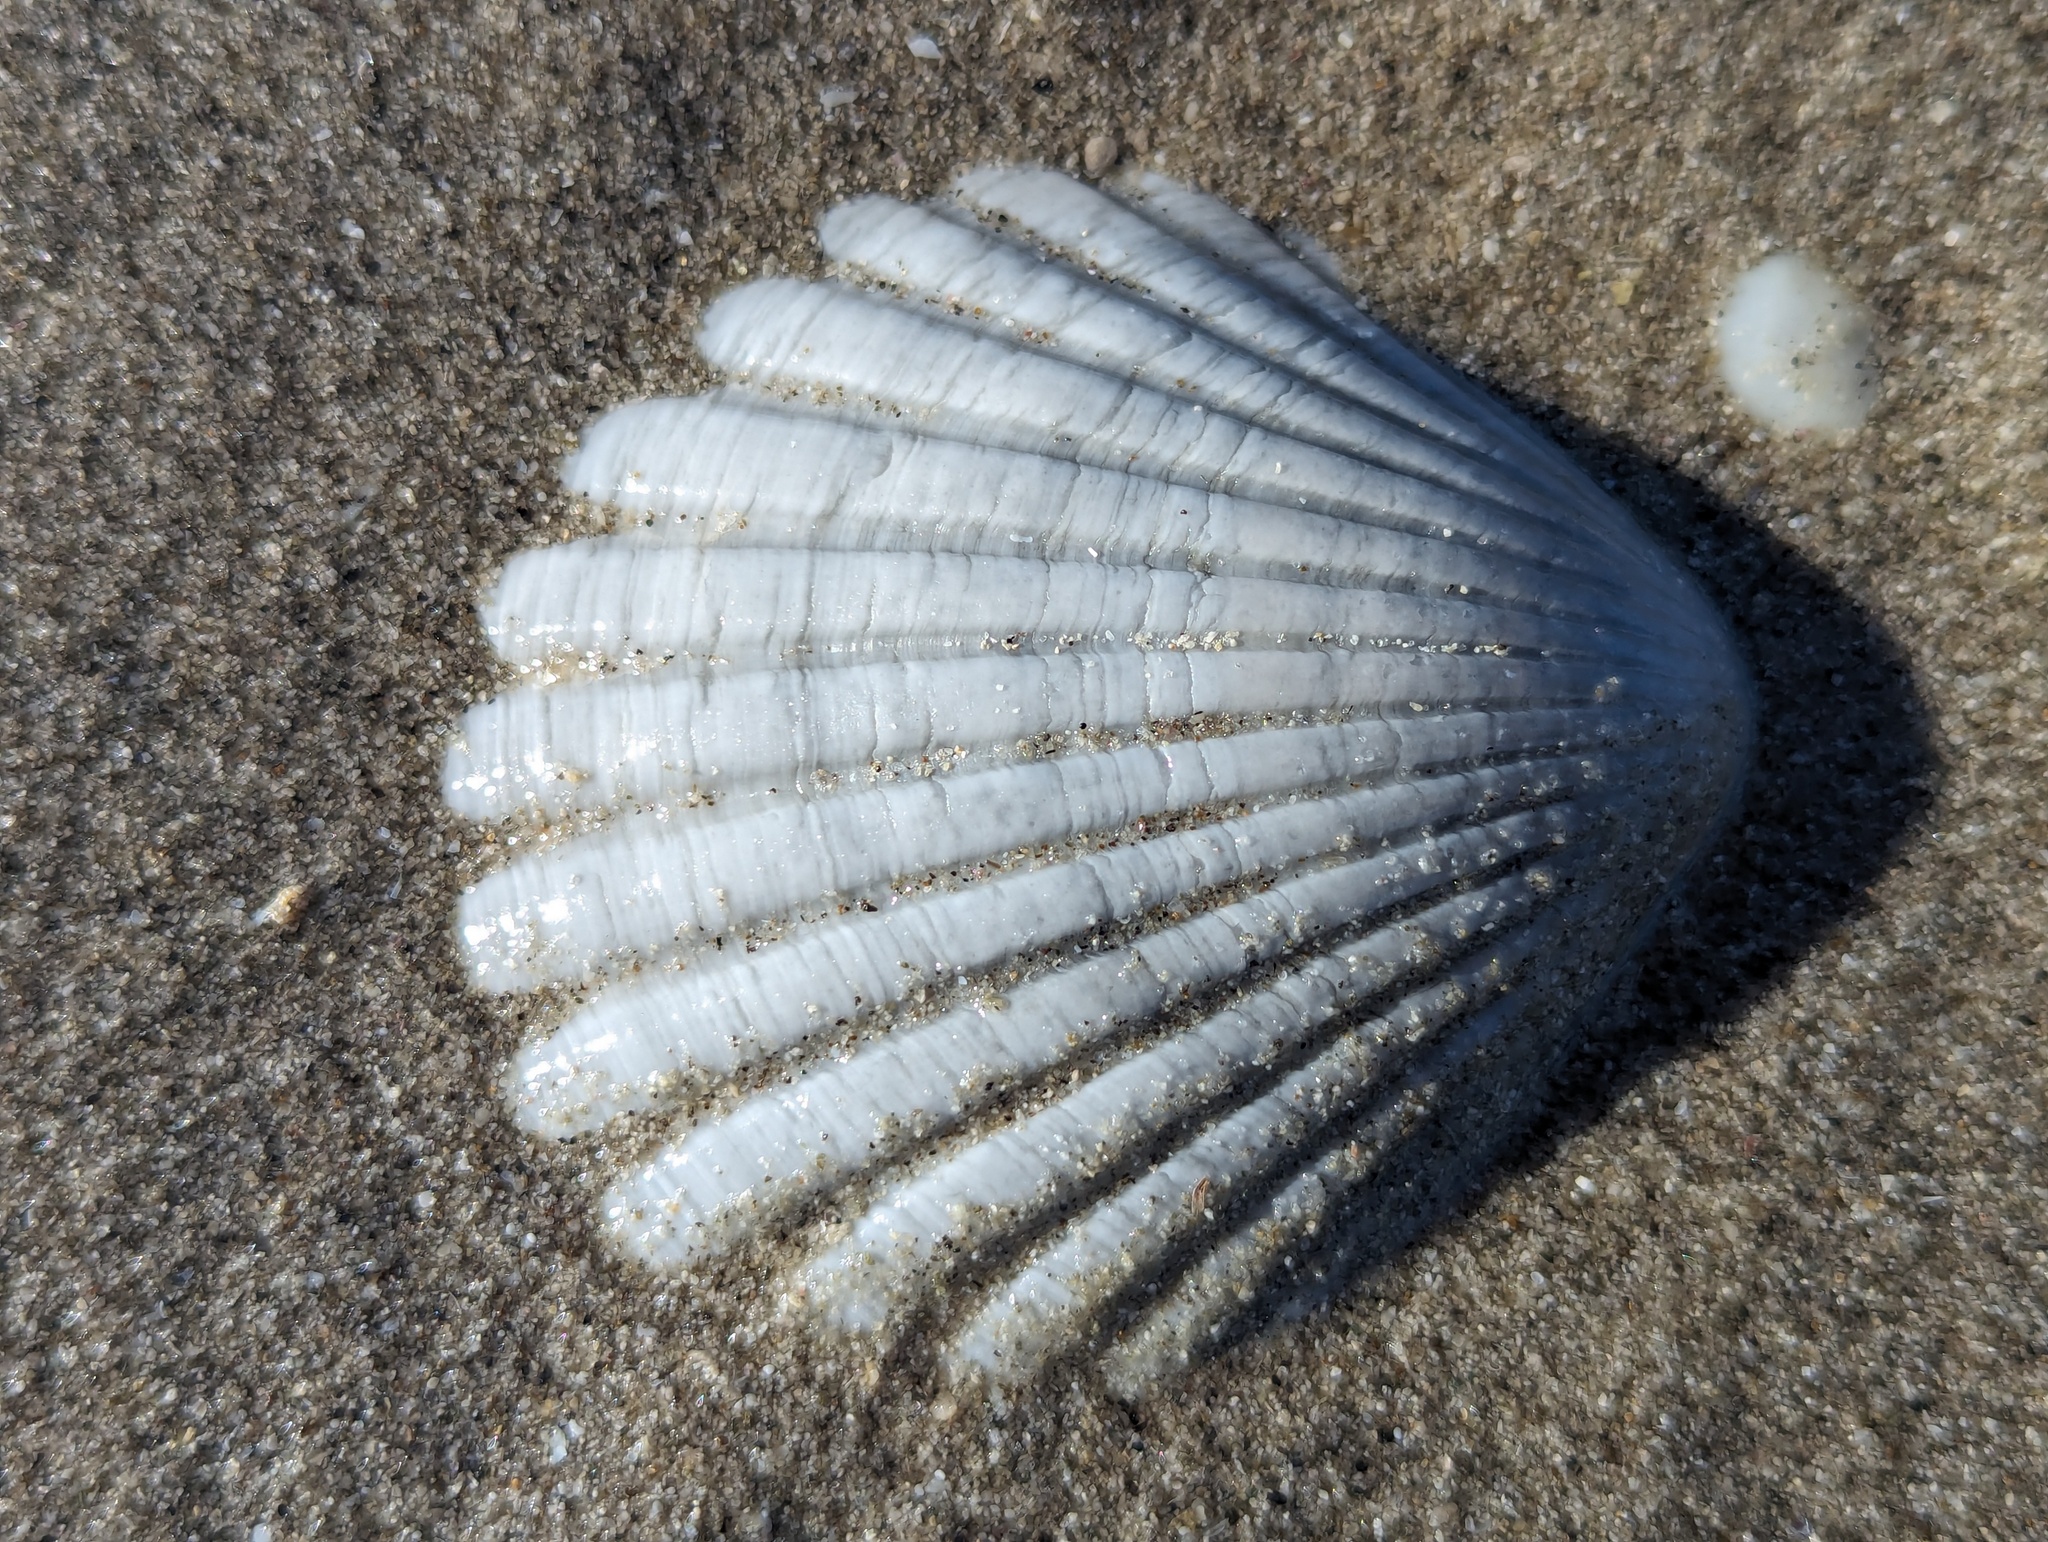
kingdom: Animalia
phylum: Mollusca
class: Bivalvia
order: Pectinida
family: Pectinidae
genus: Pecten
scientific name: Pecten novaezelandiae
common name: New zealand scallop
